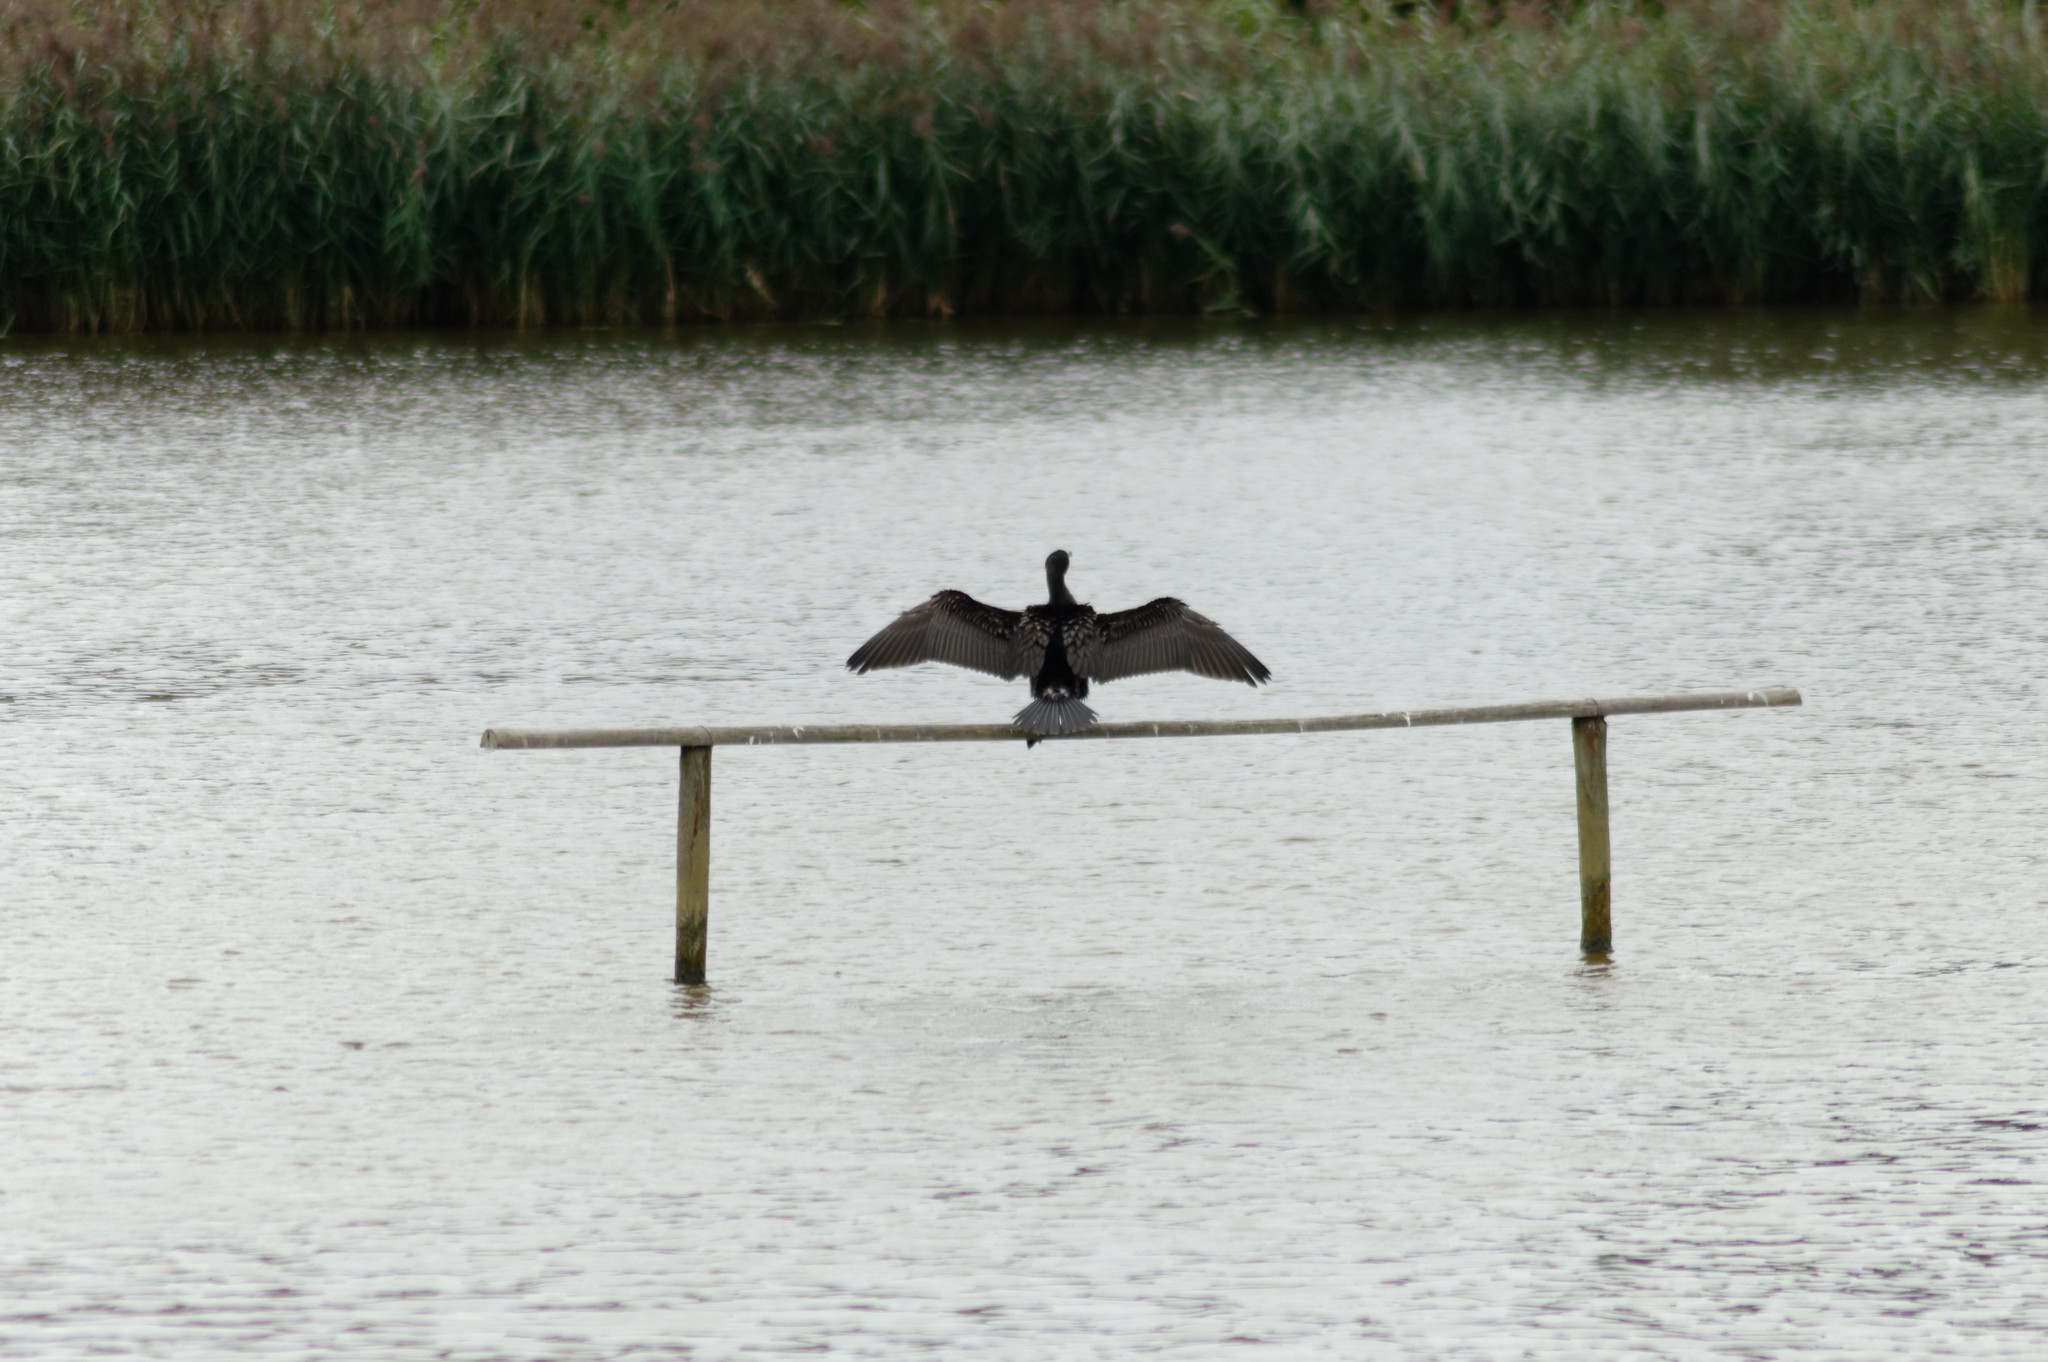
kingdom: Animalia
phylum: Chordata
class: Aves
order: Suliformes
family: Phalacrocoracidae
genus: Phalacrocorax
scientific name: Phalacrocorax carbo
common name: Great cormorant
